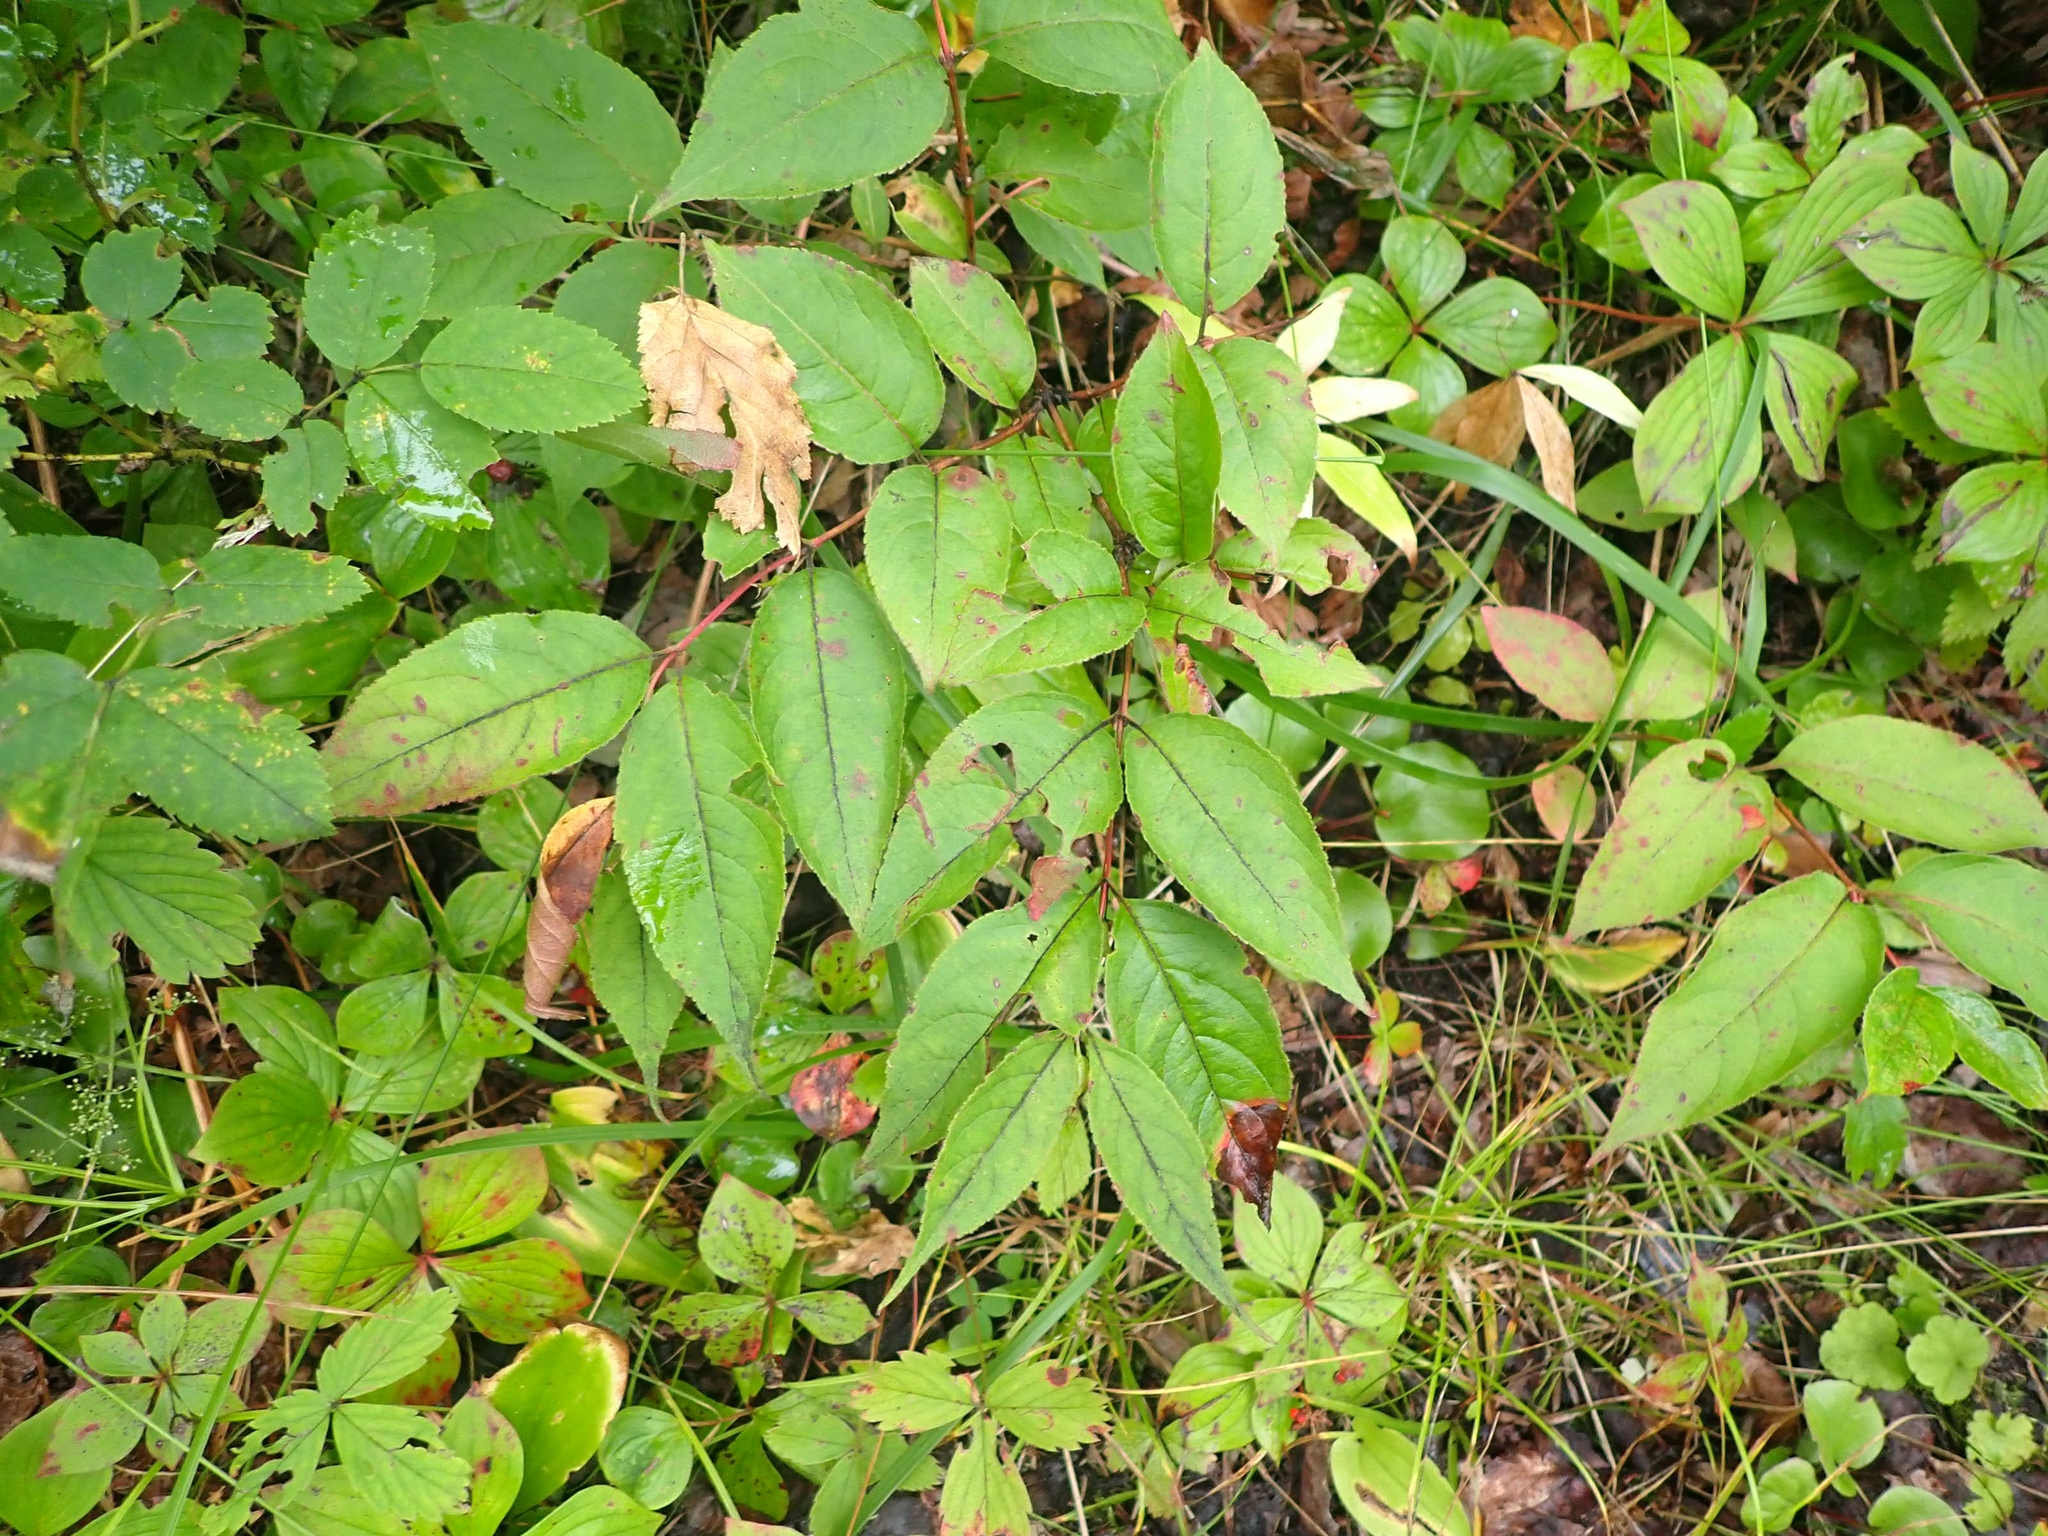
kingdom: Plantae
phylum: Tracheophyta
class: Magnoliopsida
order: Dipsacales
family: Caprifoliaceae
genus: Diervilla
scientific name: Diervilla lonicera
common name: Bush-honeysuckle
